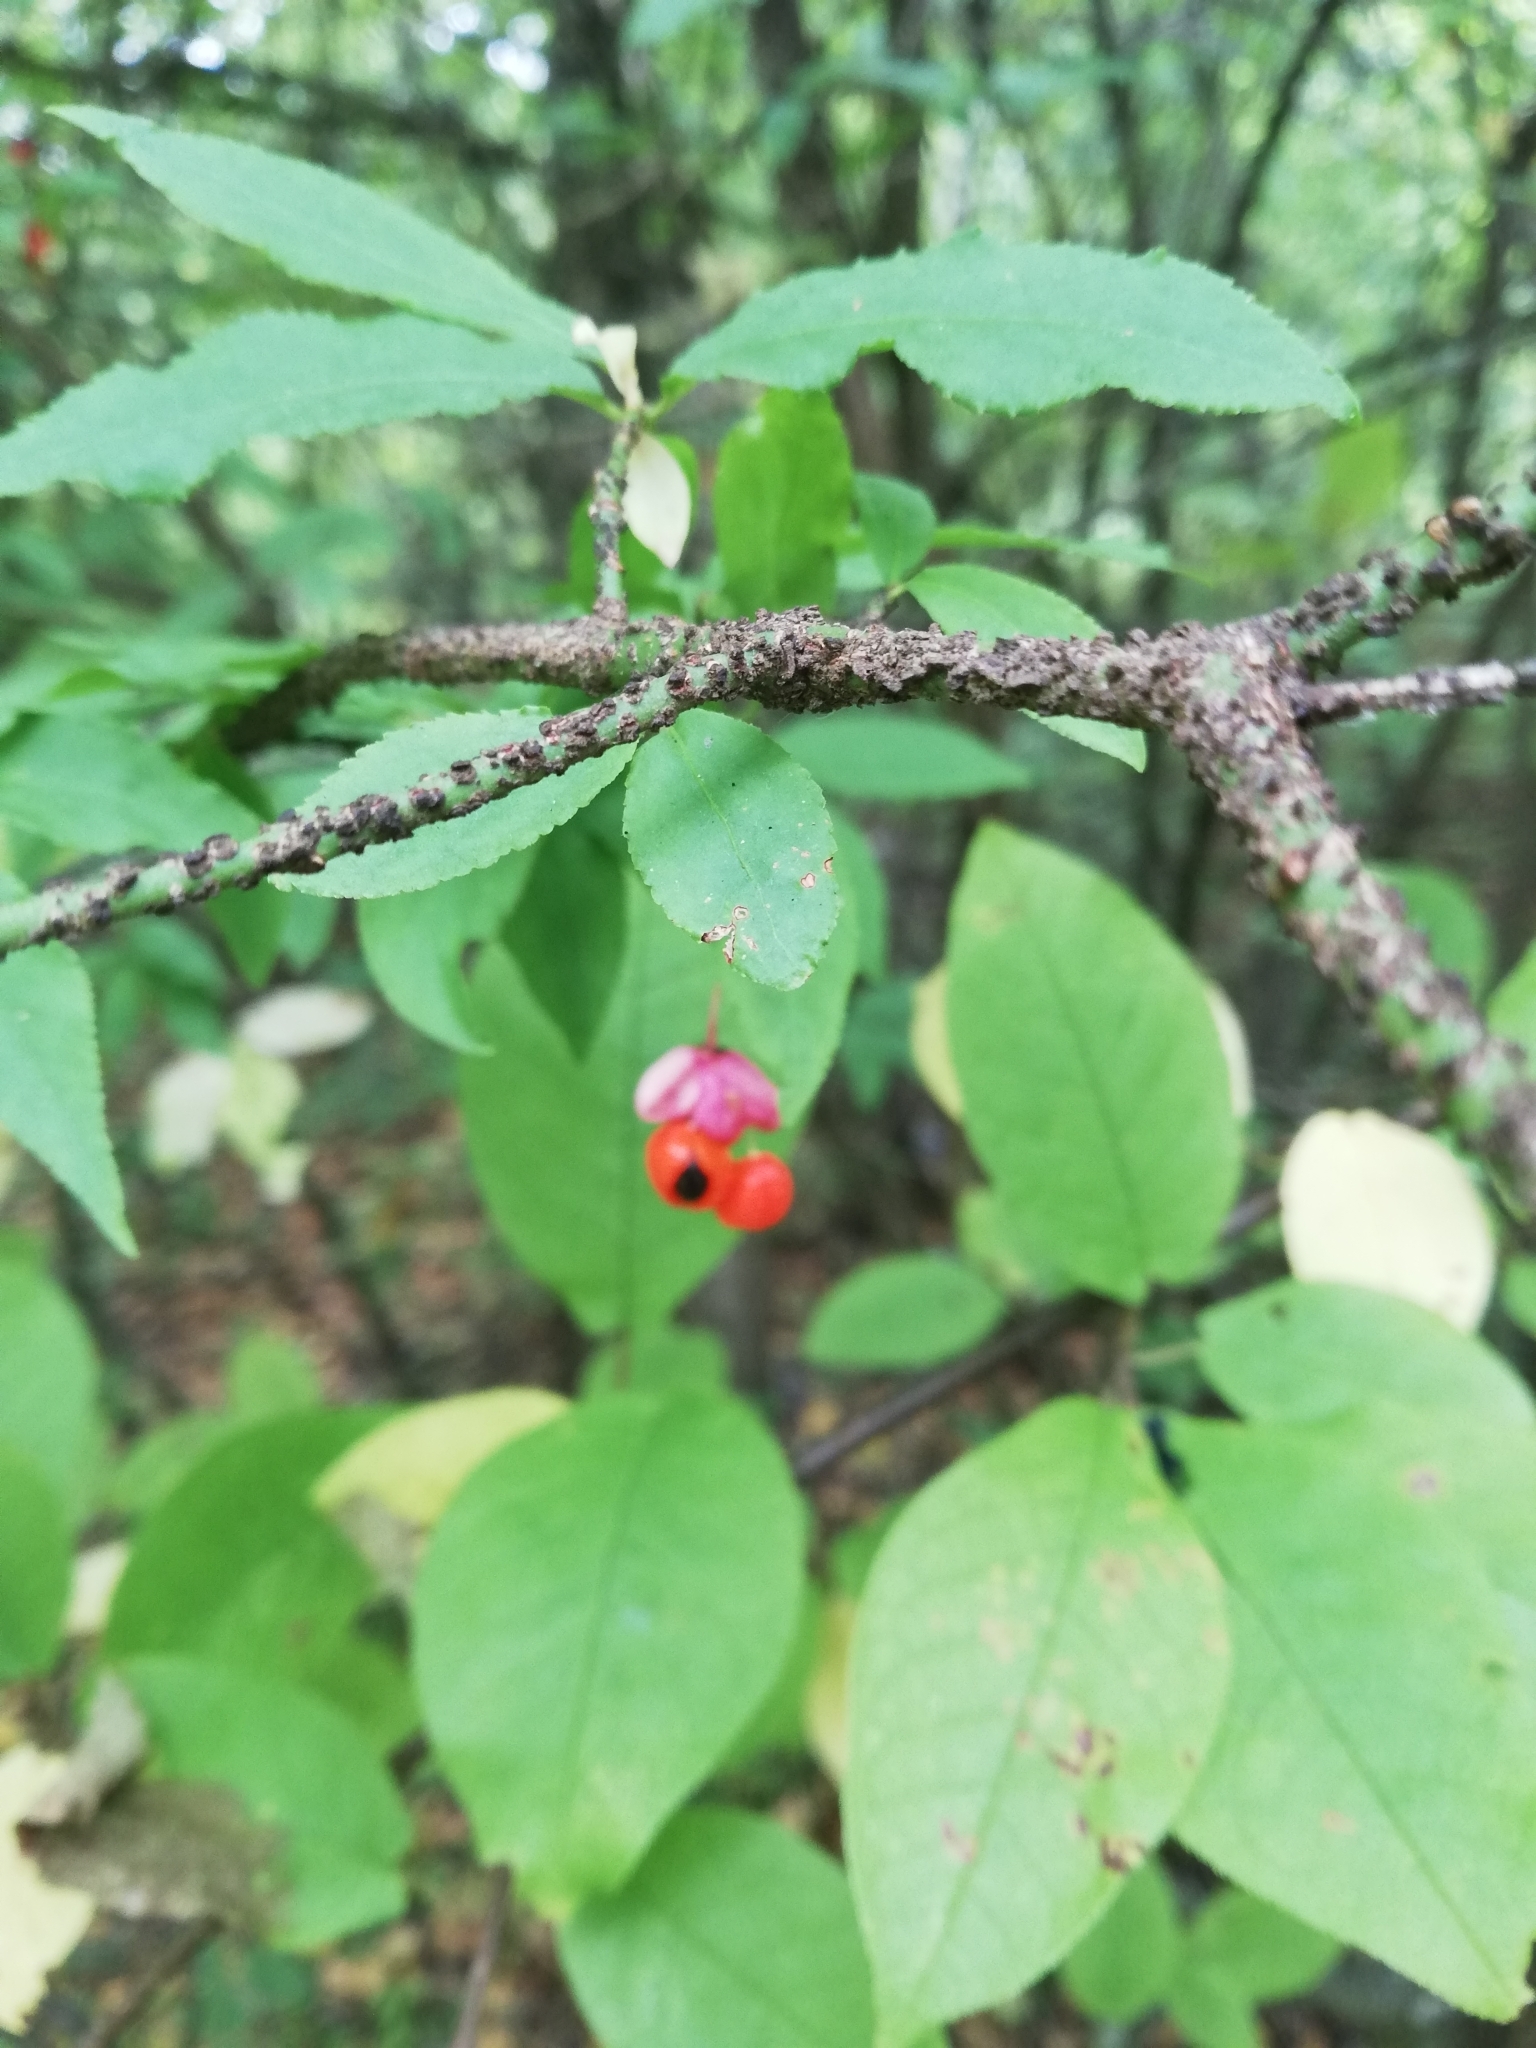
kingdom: Plantae
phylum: Tracheophyta
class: Magnoliopsida
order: Celastrales
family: Celastraceae
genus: Euonymus
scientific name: Euonymus verrucosus
